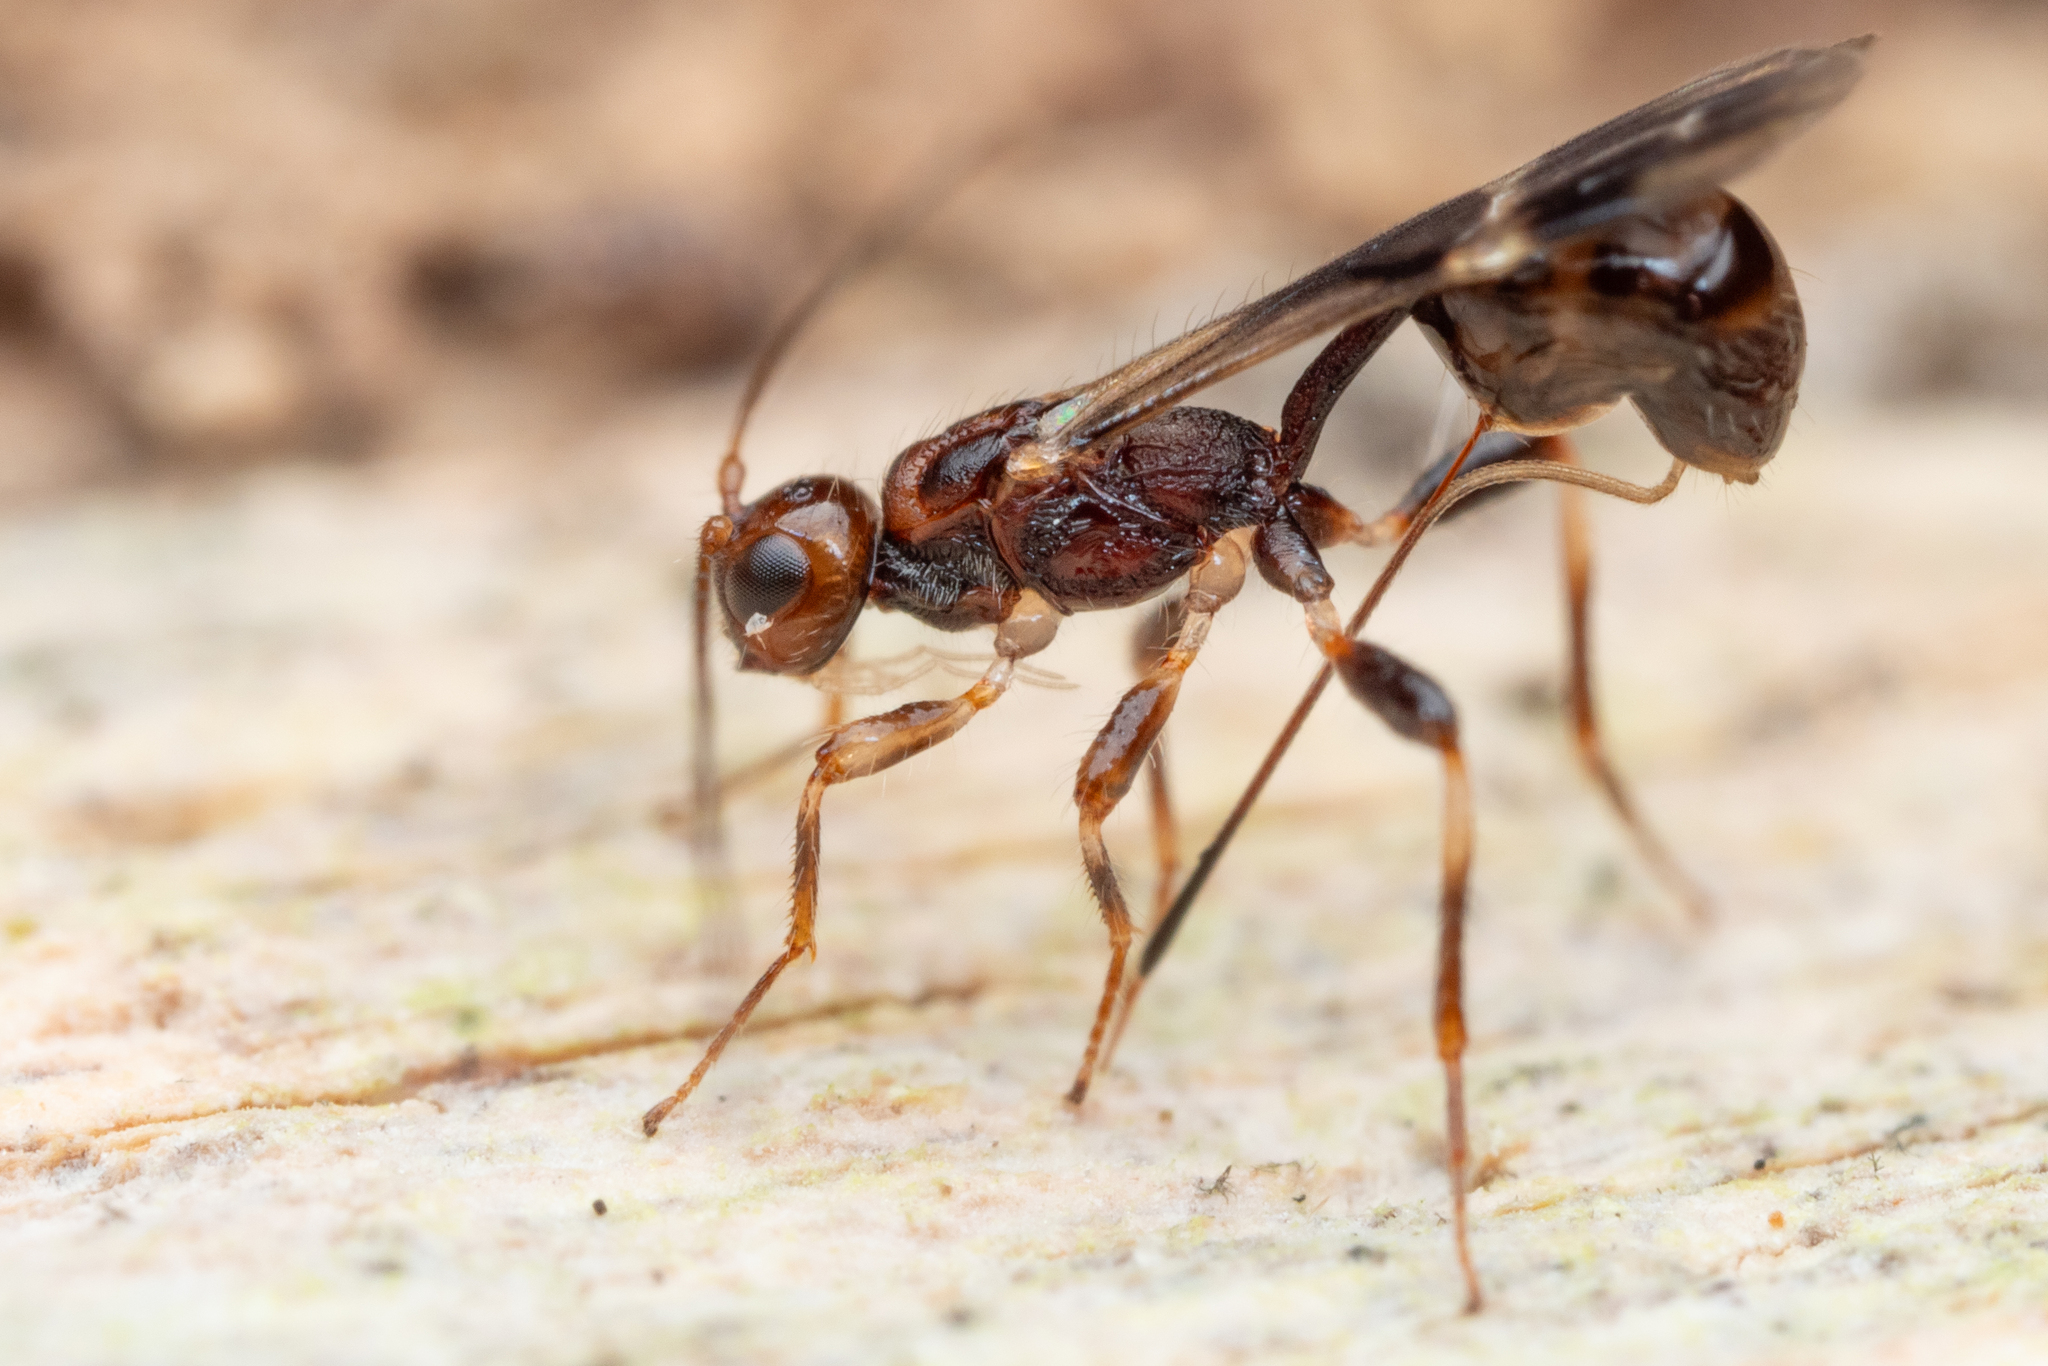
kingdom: Animalia
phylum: Arthropoda
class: Insecta
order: Hymenoptera
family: Braconidae
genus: Spathius
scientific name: Spathius exarator
